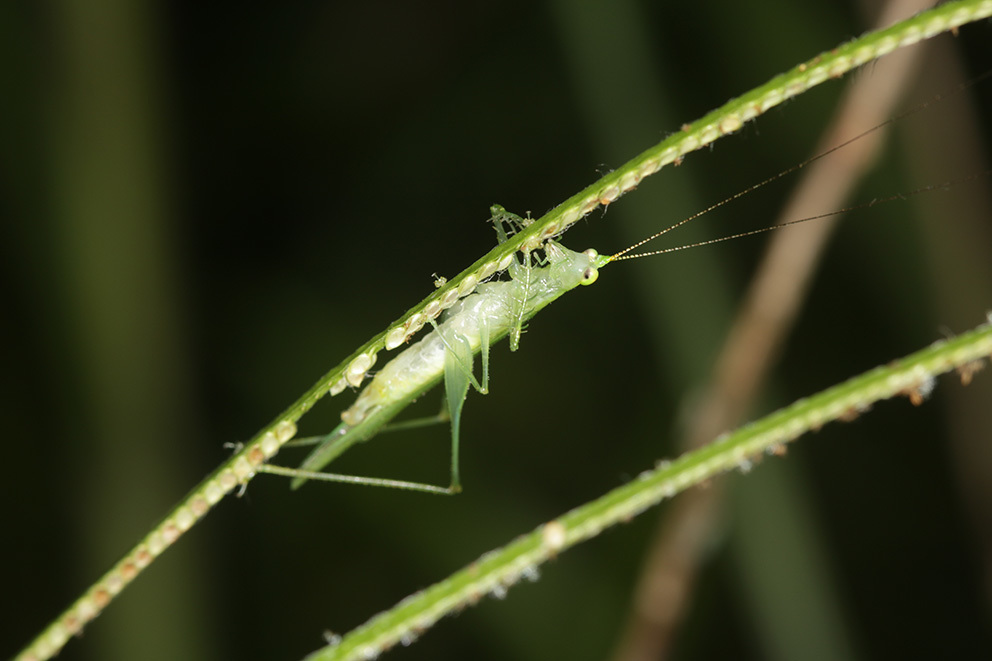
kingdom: Animalia
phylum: Arthropoda
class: Insecta
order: Orthoptera
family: Tettigoniidae
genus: Phlugis
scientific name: Phlugis ocraceovittata
